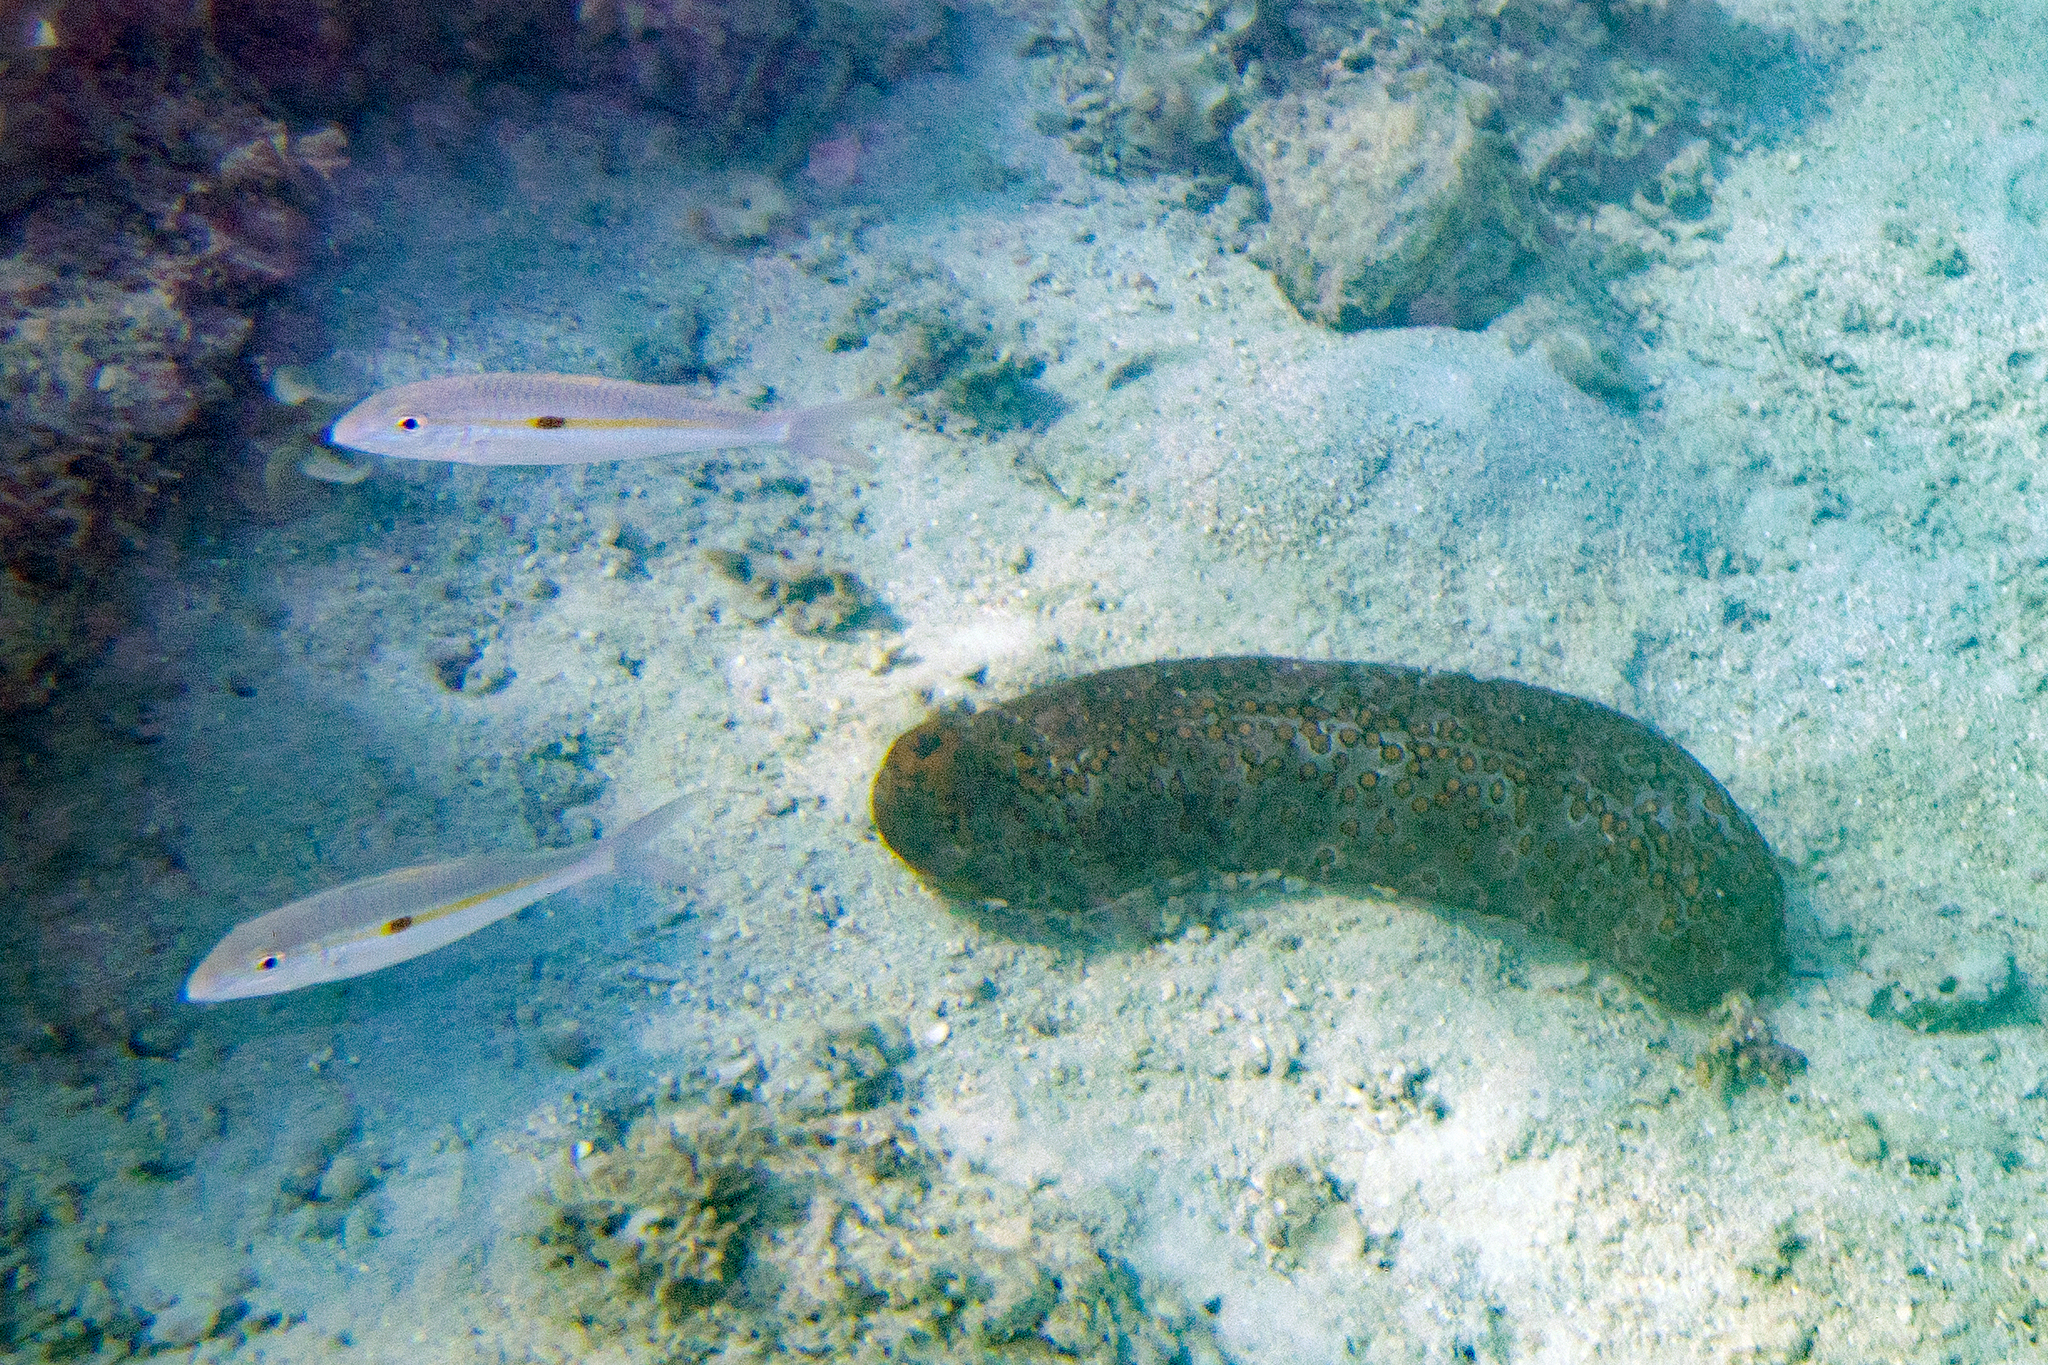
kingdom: Animalia
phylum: Chordata
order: Perciformes
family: Mullidae
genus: Mulloidichthys
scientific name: Mulloidichthys flavolineatus
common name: Yellowstripe goatfish
